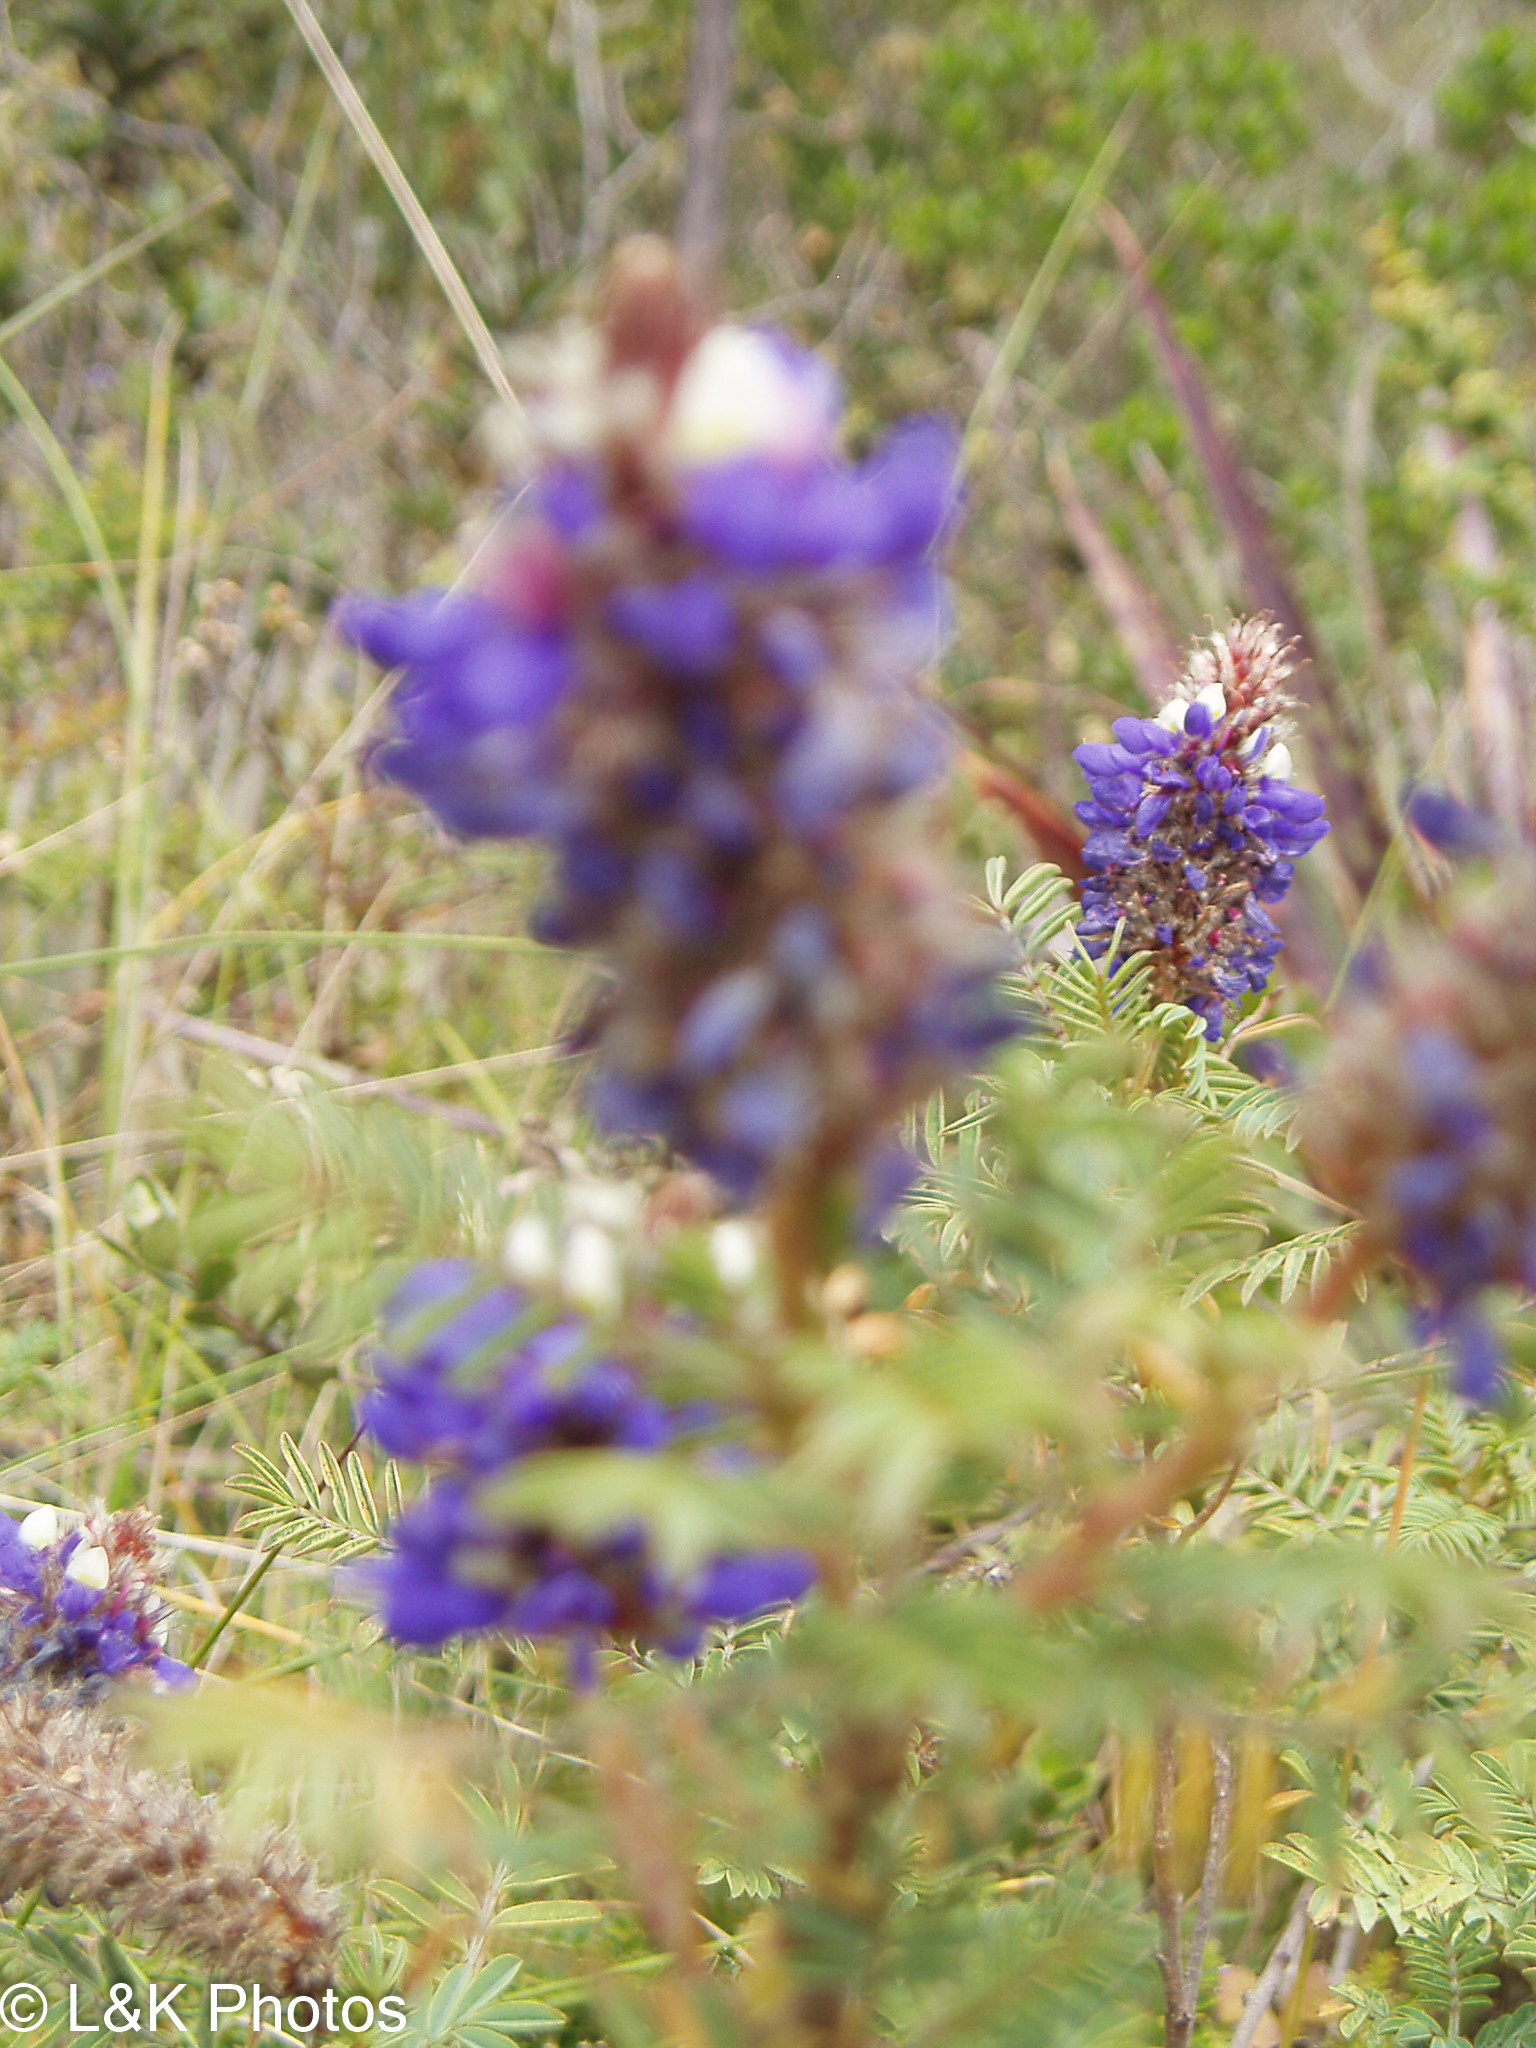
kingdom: Plantae
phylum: Tracheophyta
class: Magnoliopsida
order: Fabales
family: Fabaceae
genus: Dalea
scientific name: Dalea coerulea
